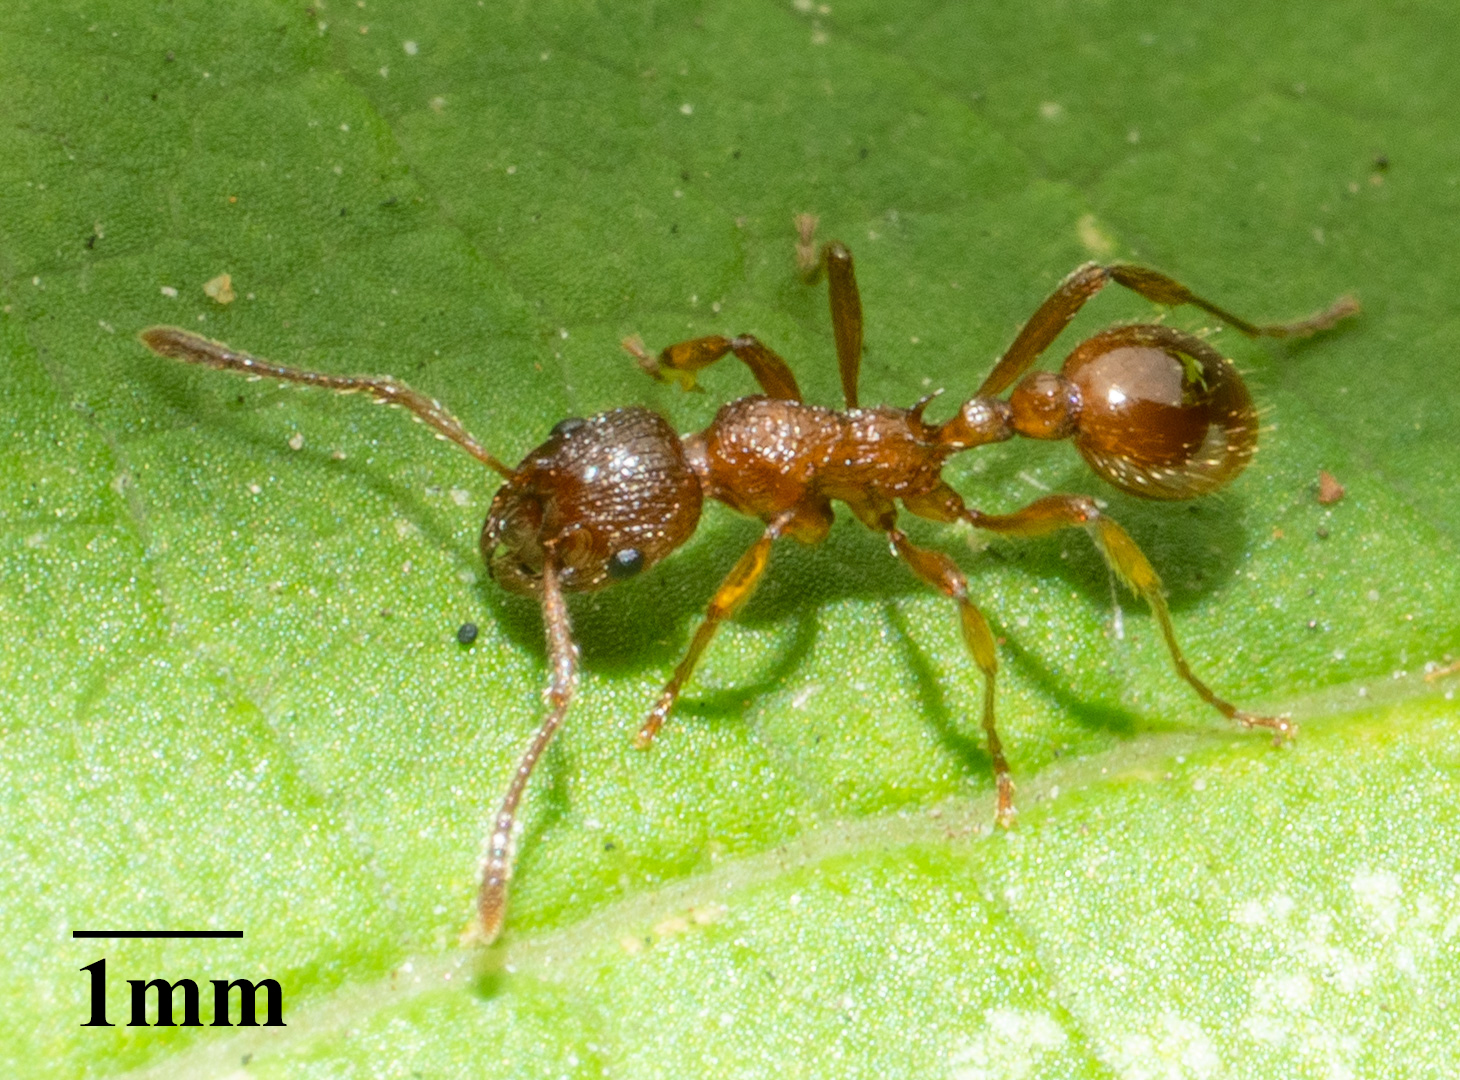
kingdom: Animalia
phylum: Arthropoda
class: Insecta
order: Hymenoptera
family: Formicidae
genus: Myrmica
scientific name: Myrmica rubra
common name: European fire ant
